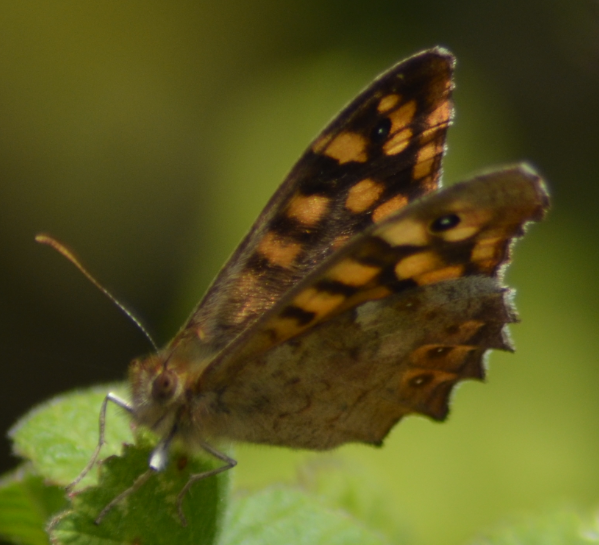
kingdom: Animalia
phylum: Arthropoda
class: Insecta
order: Lepidoptera
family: Nymphalidae
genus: Pararge
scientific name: Pararge aegeria
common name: Speckled wood
